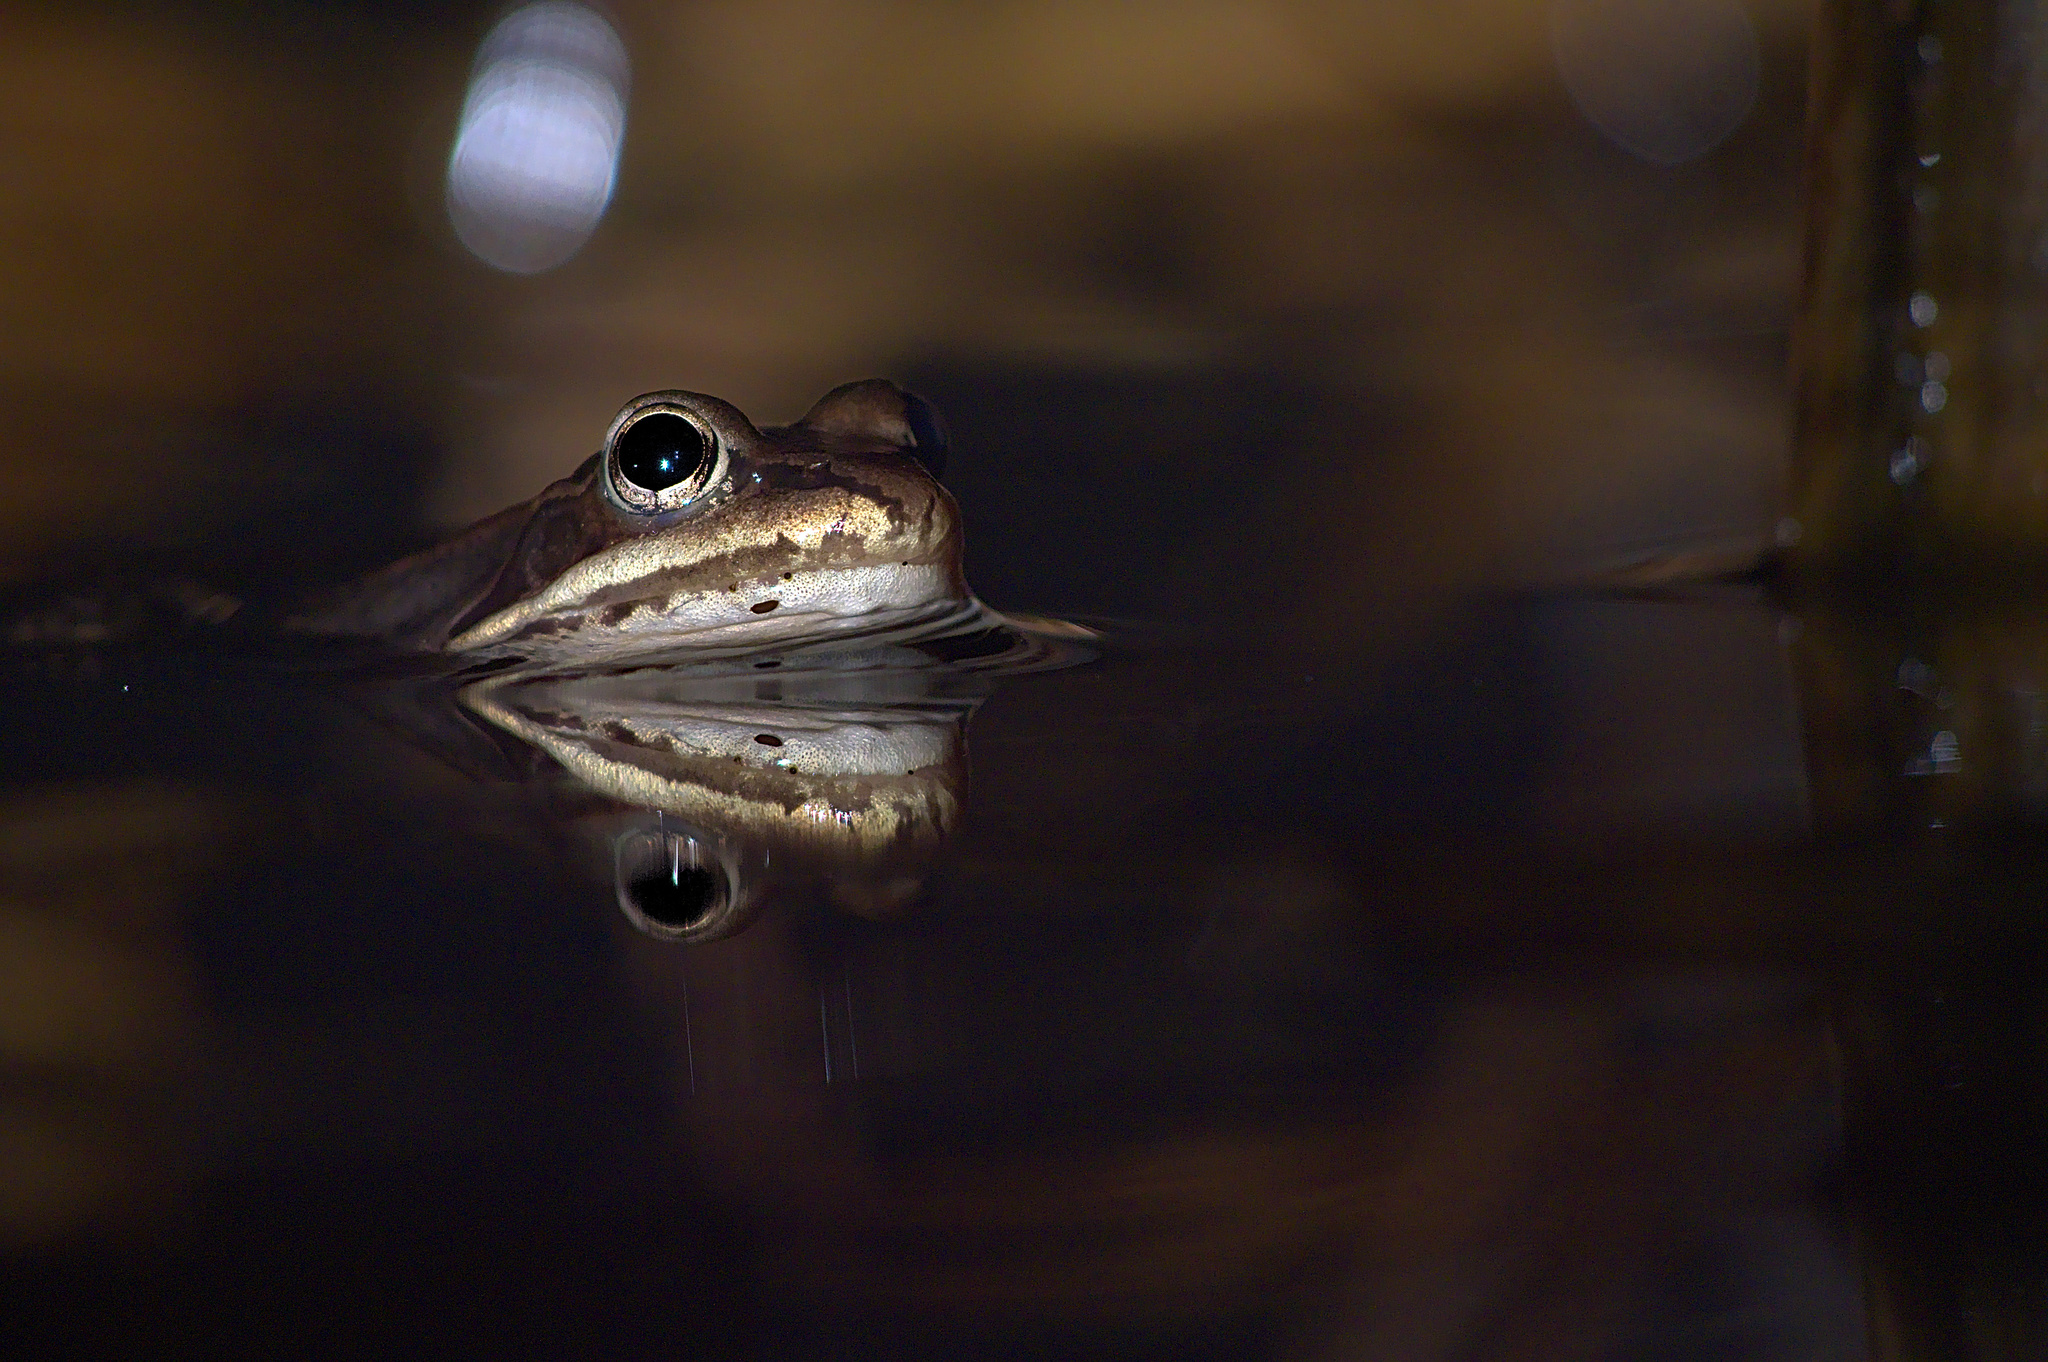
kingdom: Animalia
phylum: Chordata
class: Amphibia
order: Anura
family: Ranidae
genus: Lithobates
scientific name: Lithobates sylvaticus
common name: Wood frog
